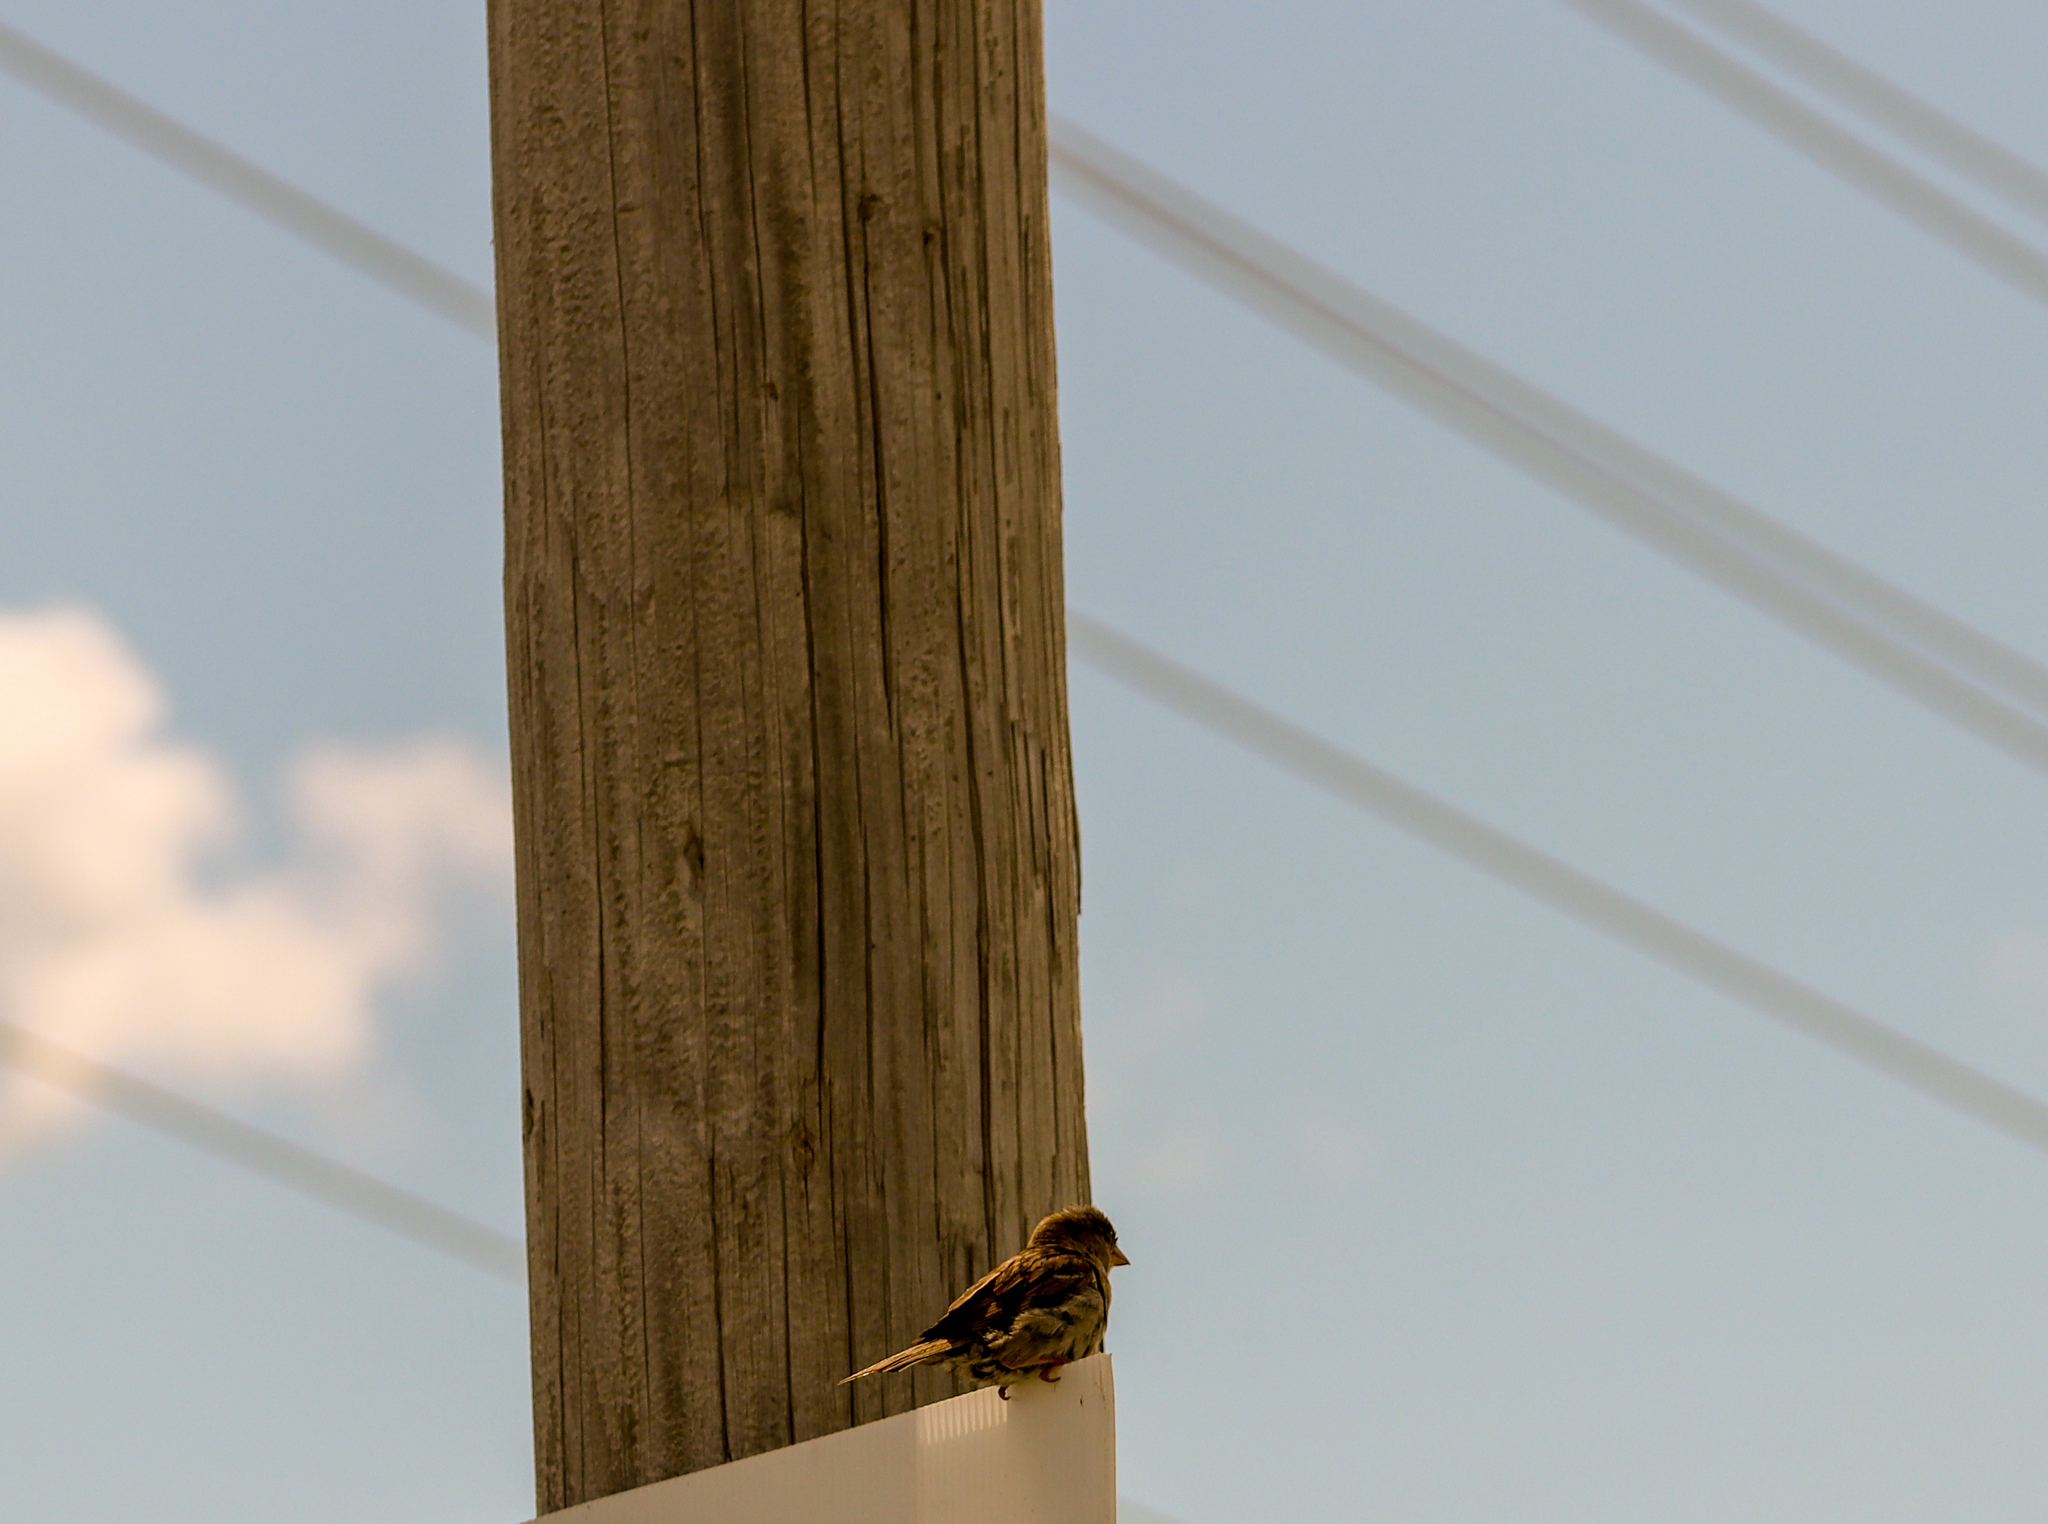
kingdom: Animalia
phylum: Chordata
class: Aves
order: Passeriformes
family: Passeridae
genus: Passer
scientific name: Passer domesticus
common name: House sparrow
